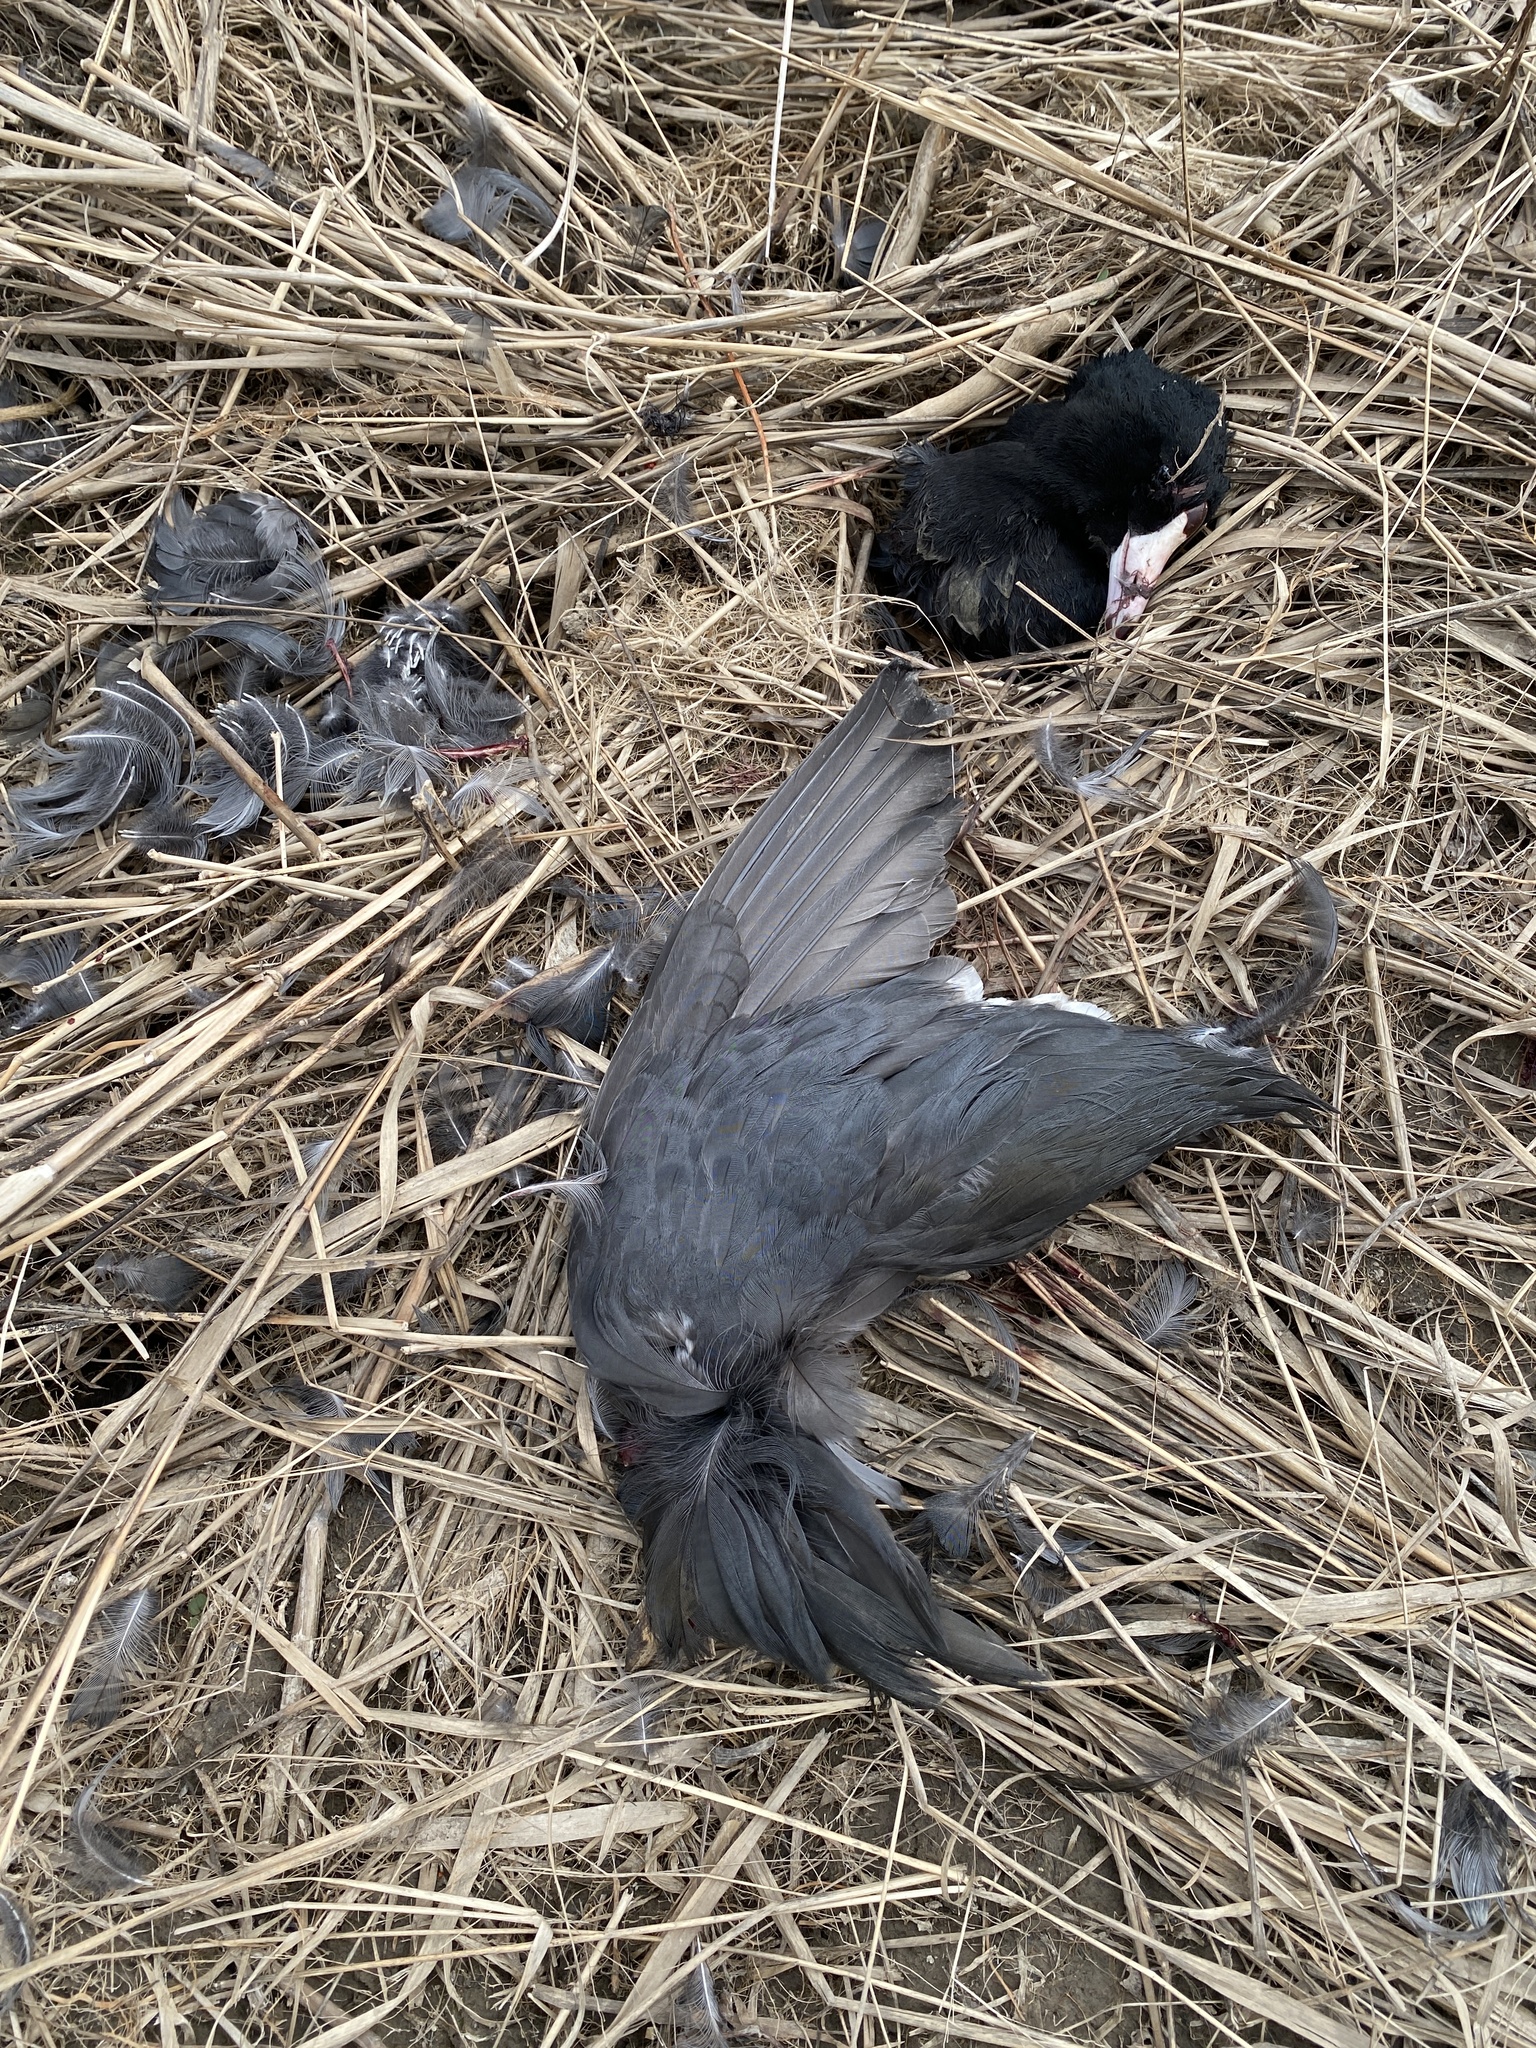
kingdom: Animalia
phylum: Chordata
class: Aves
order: Gruiformes
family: Rallidae
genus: Fulica
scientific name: Fulica americana
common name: American coot
